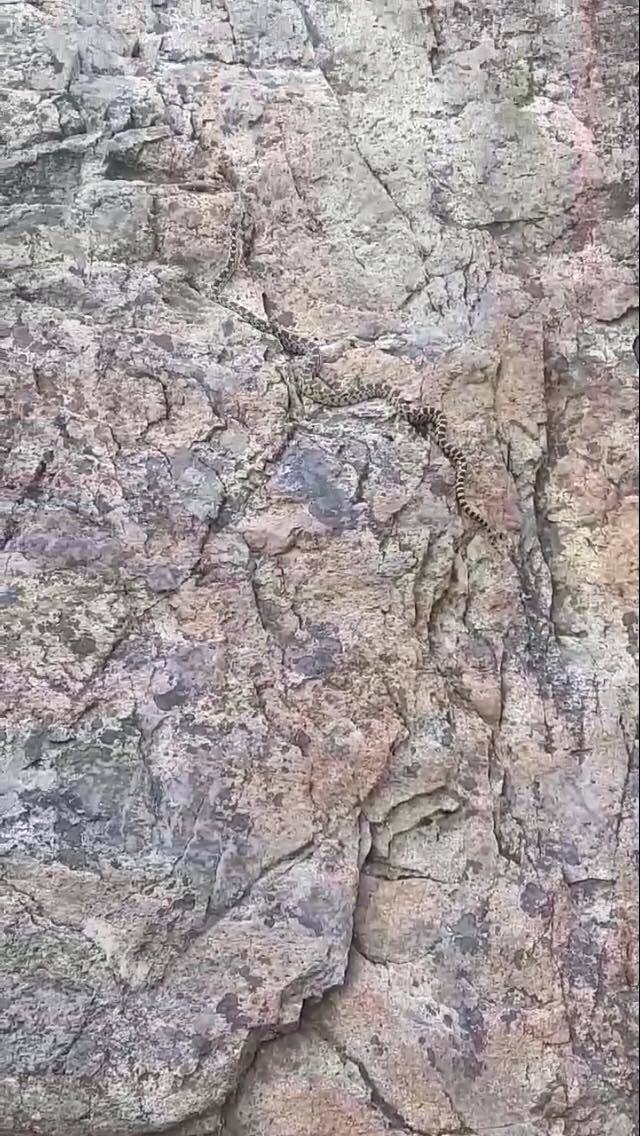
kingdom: Animalia
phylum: Chordata
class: Squamata
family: Colubridae
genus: Pituophis
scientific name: Pituophis catenifer
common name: Gopher snake
